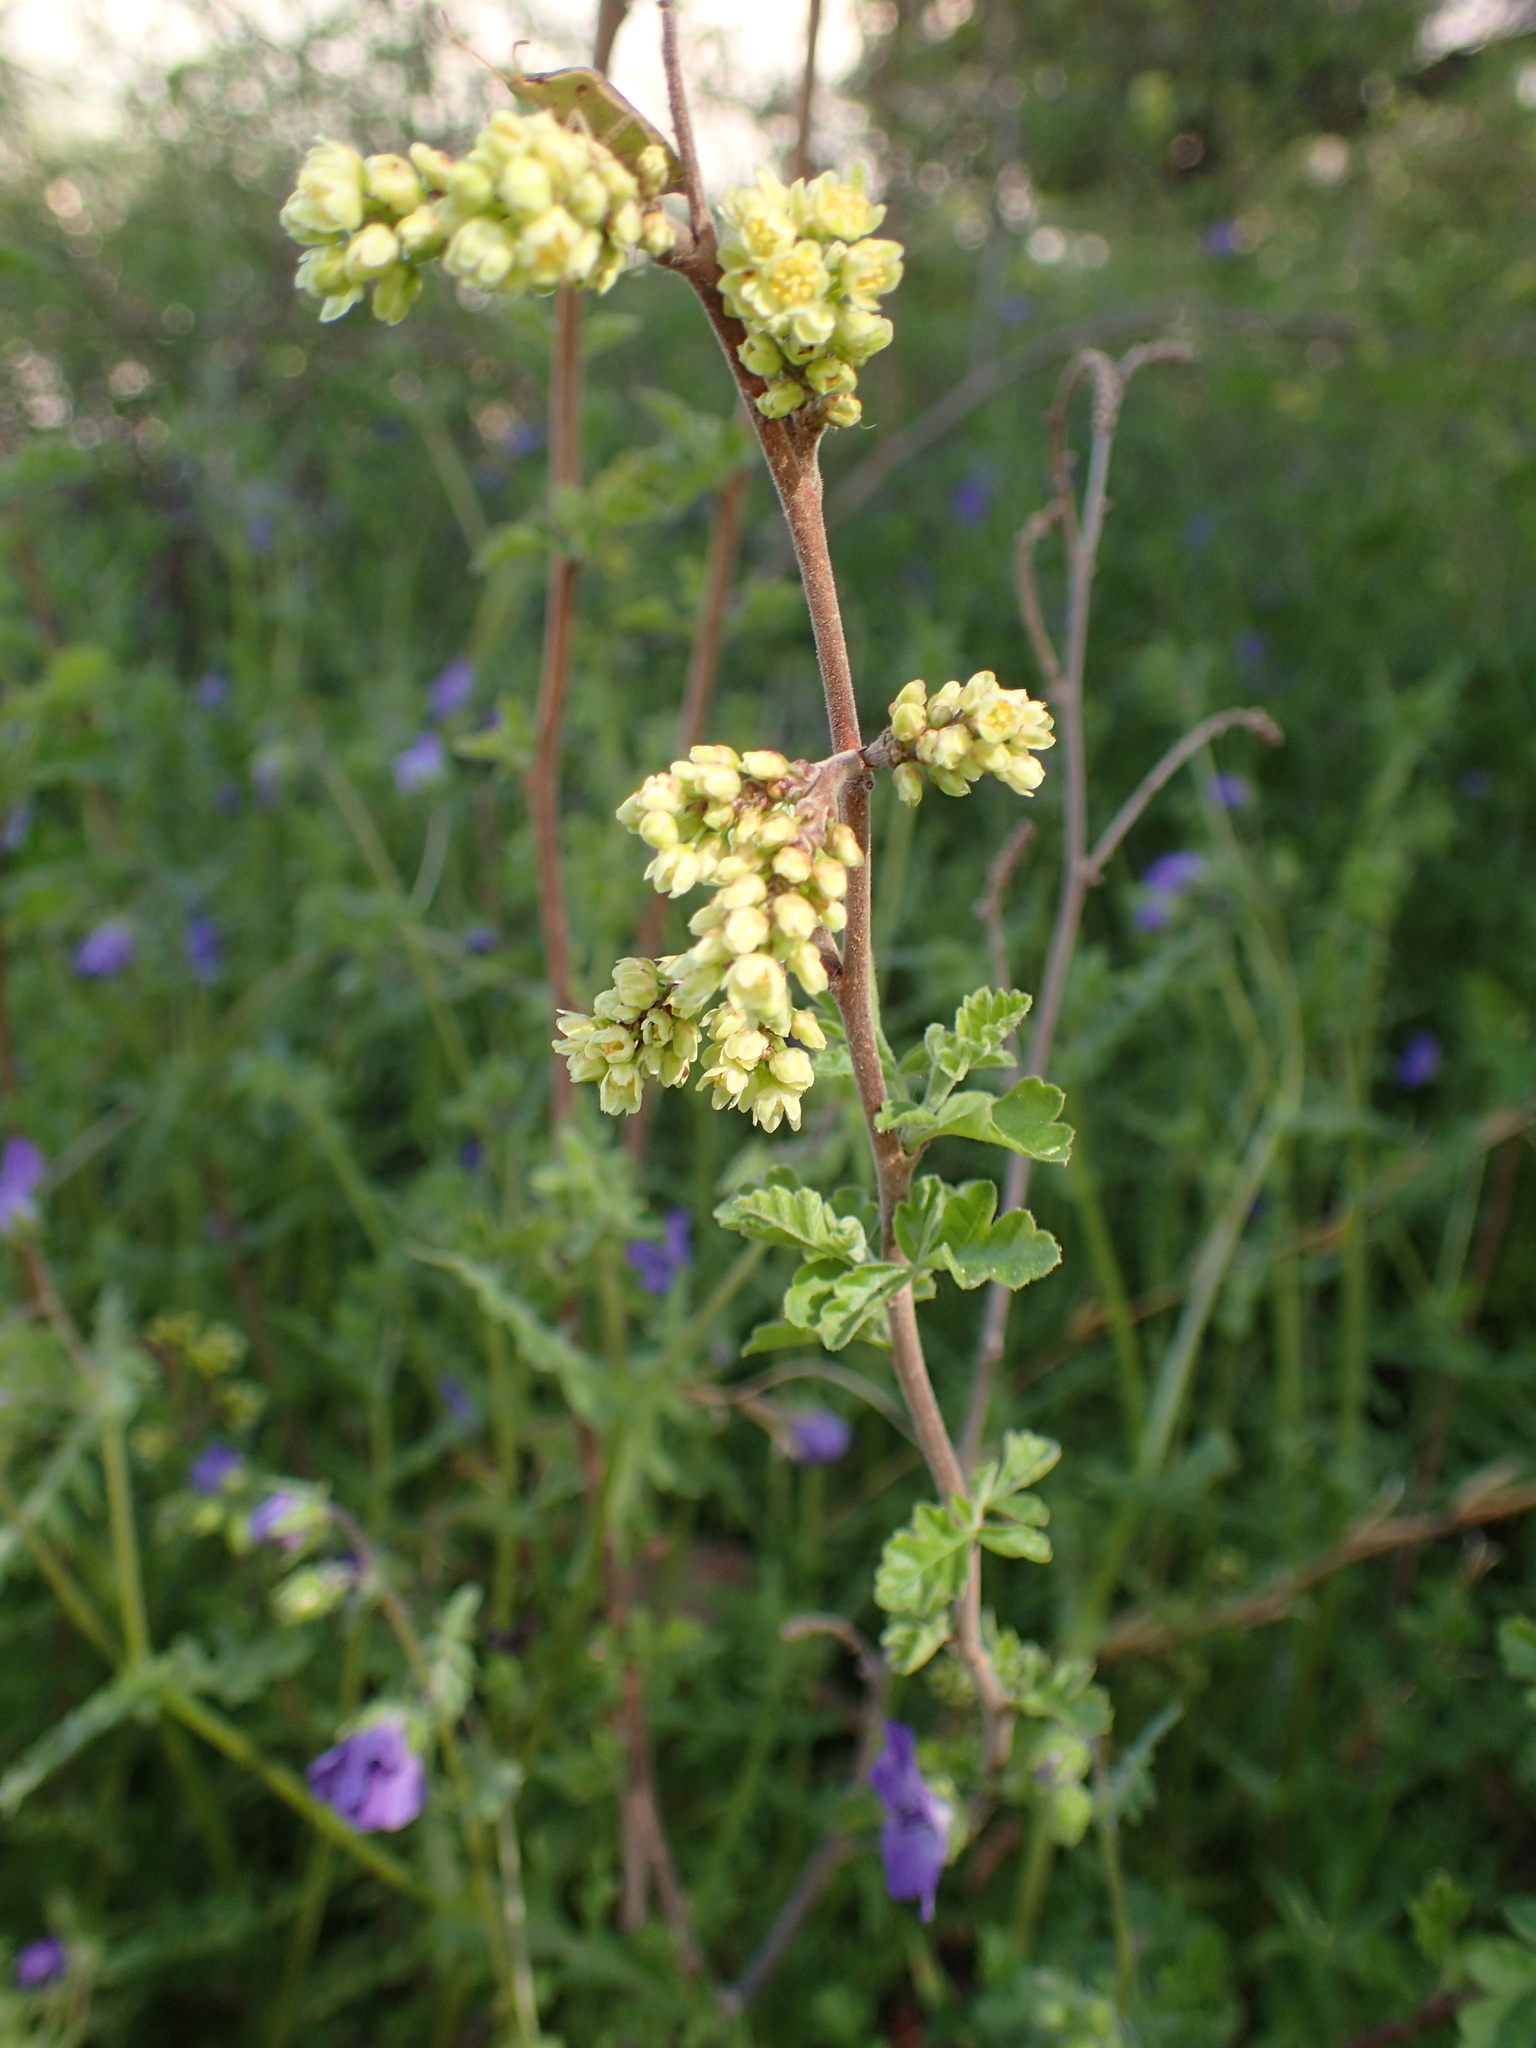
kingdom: Plantae
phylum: Tracheophyta
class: Magnoliopsida
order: Sapindales
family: Anacardiaceae
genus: Rhus
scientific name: Rhus aromatica
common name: Aromatic sumac
